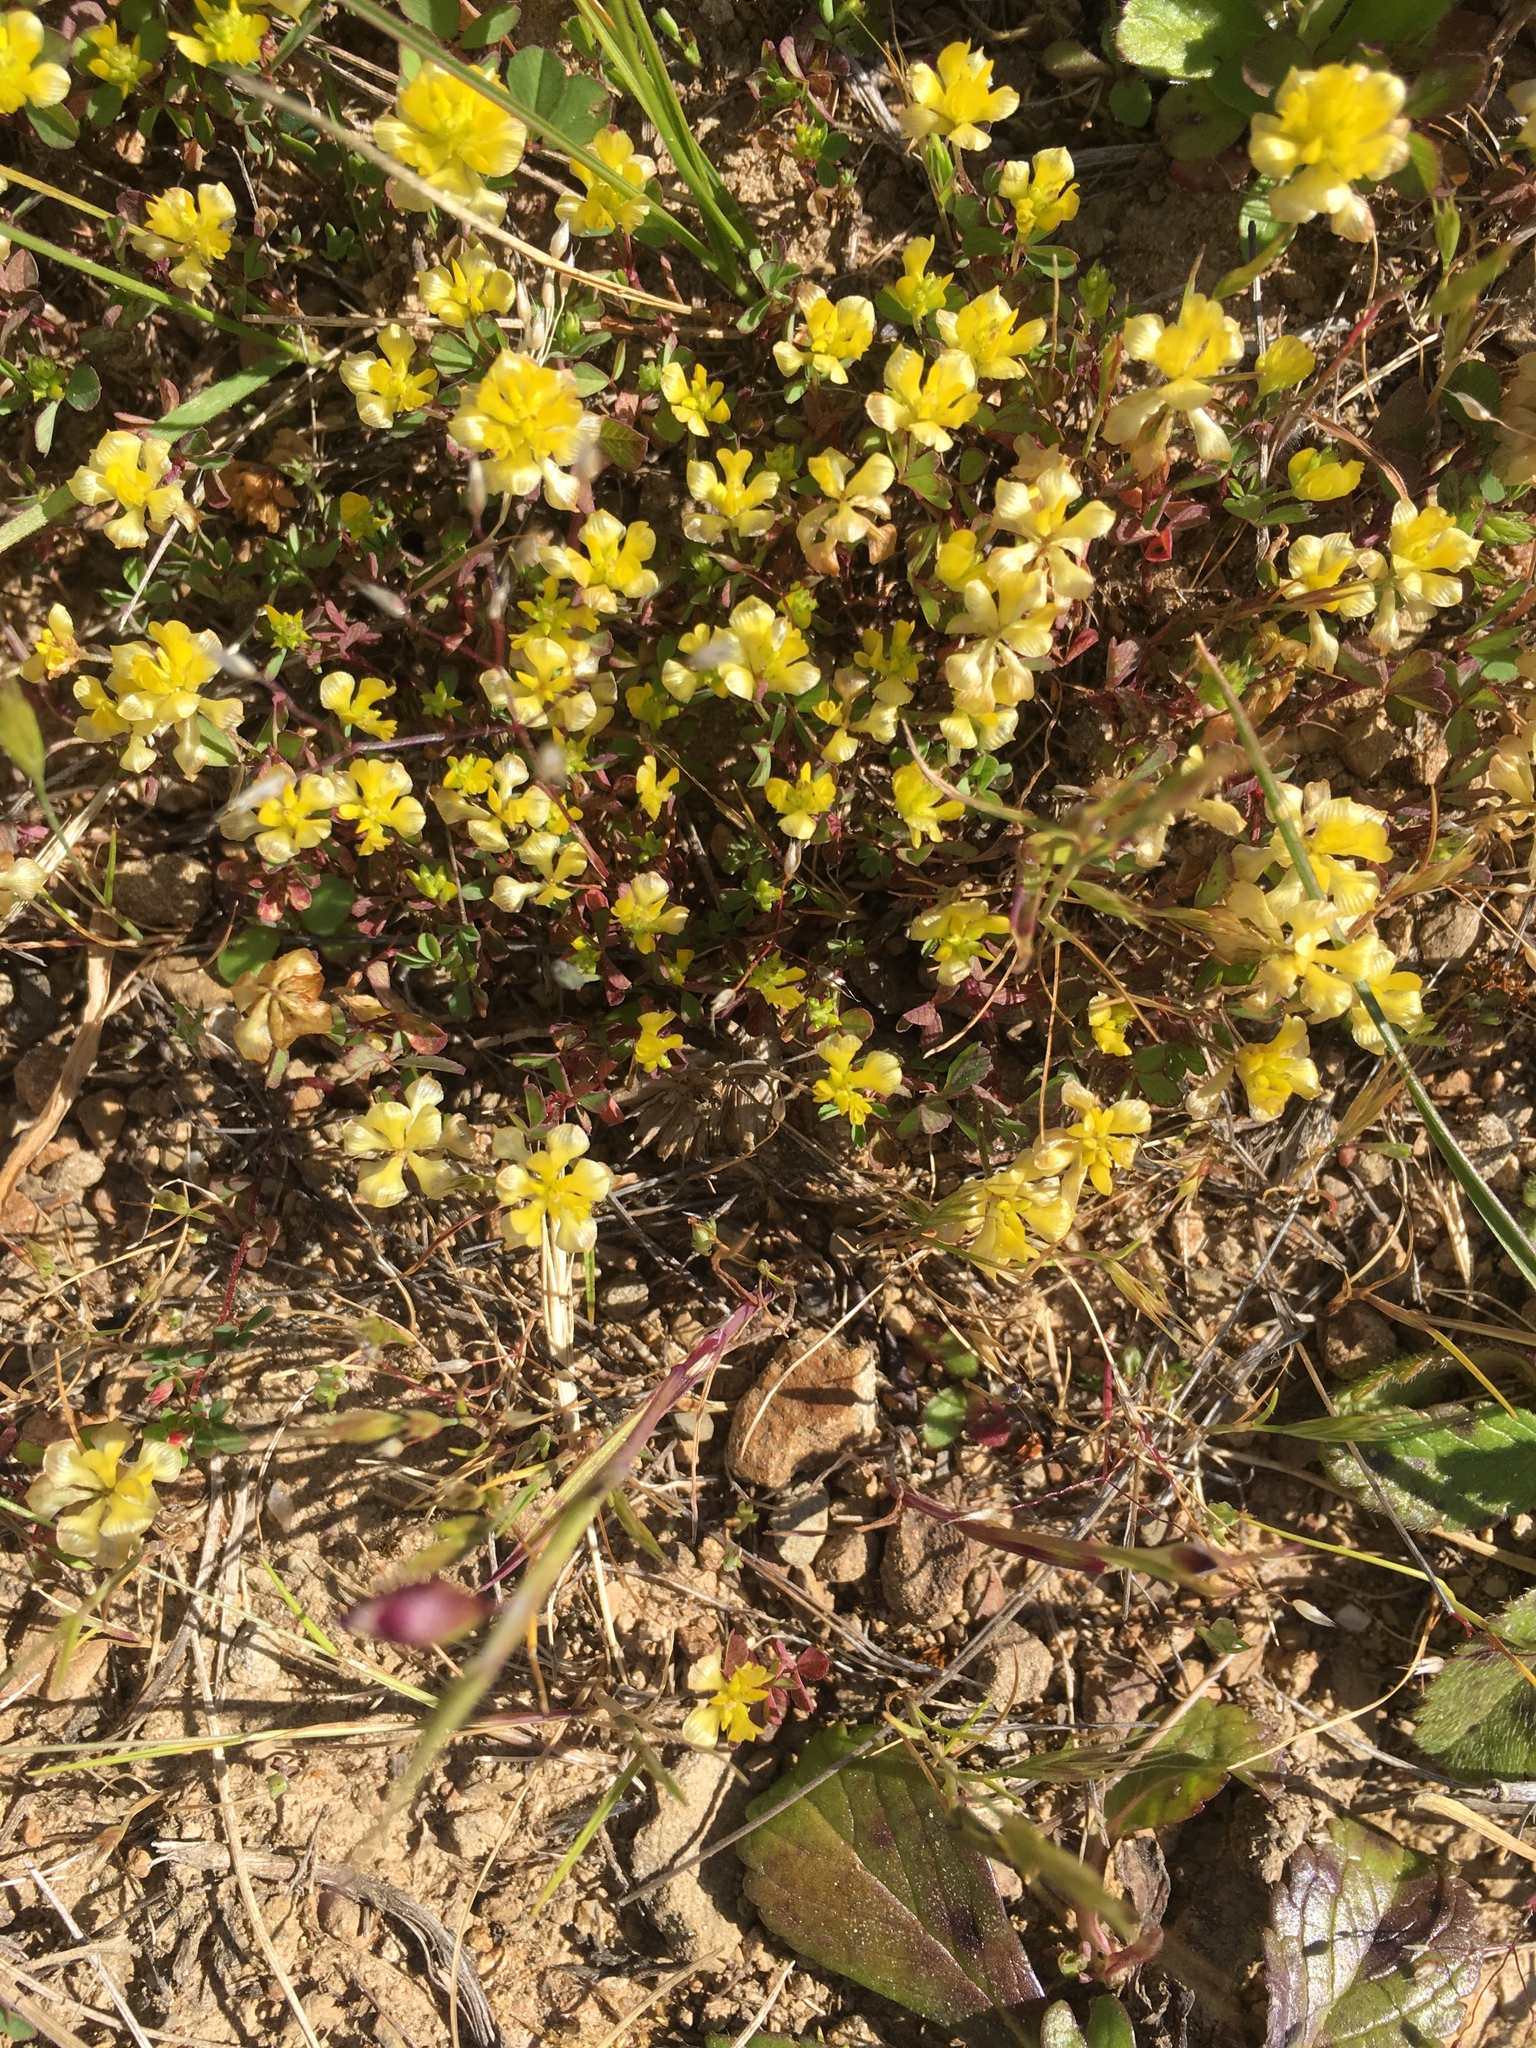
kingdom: Plantae
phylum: Tracheophyta
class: Magnoliopsida
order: Fabales
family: Fabaceae
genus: Trifolium
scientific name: Trifolium campestre
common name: Field clover
